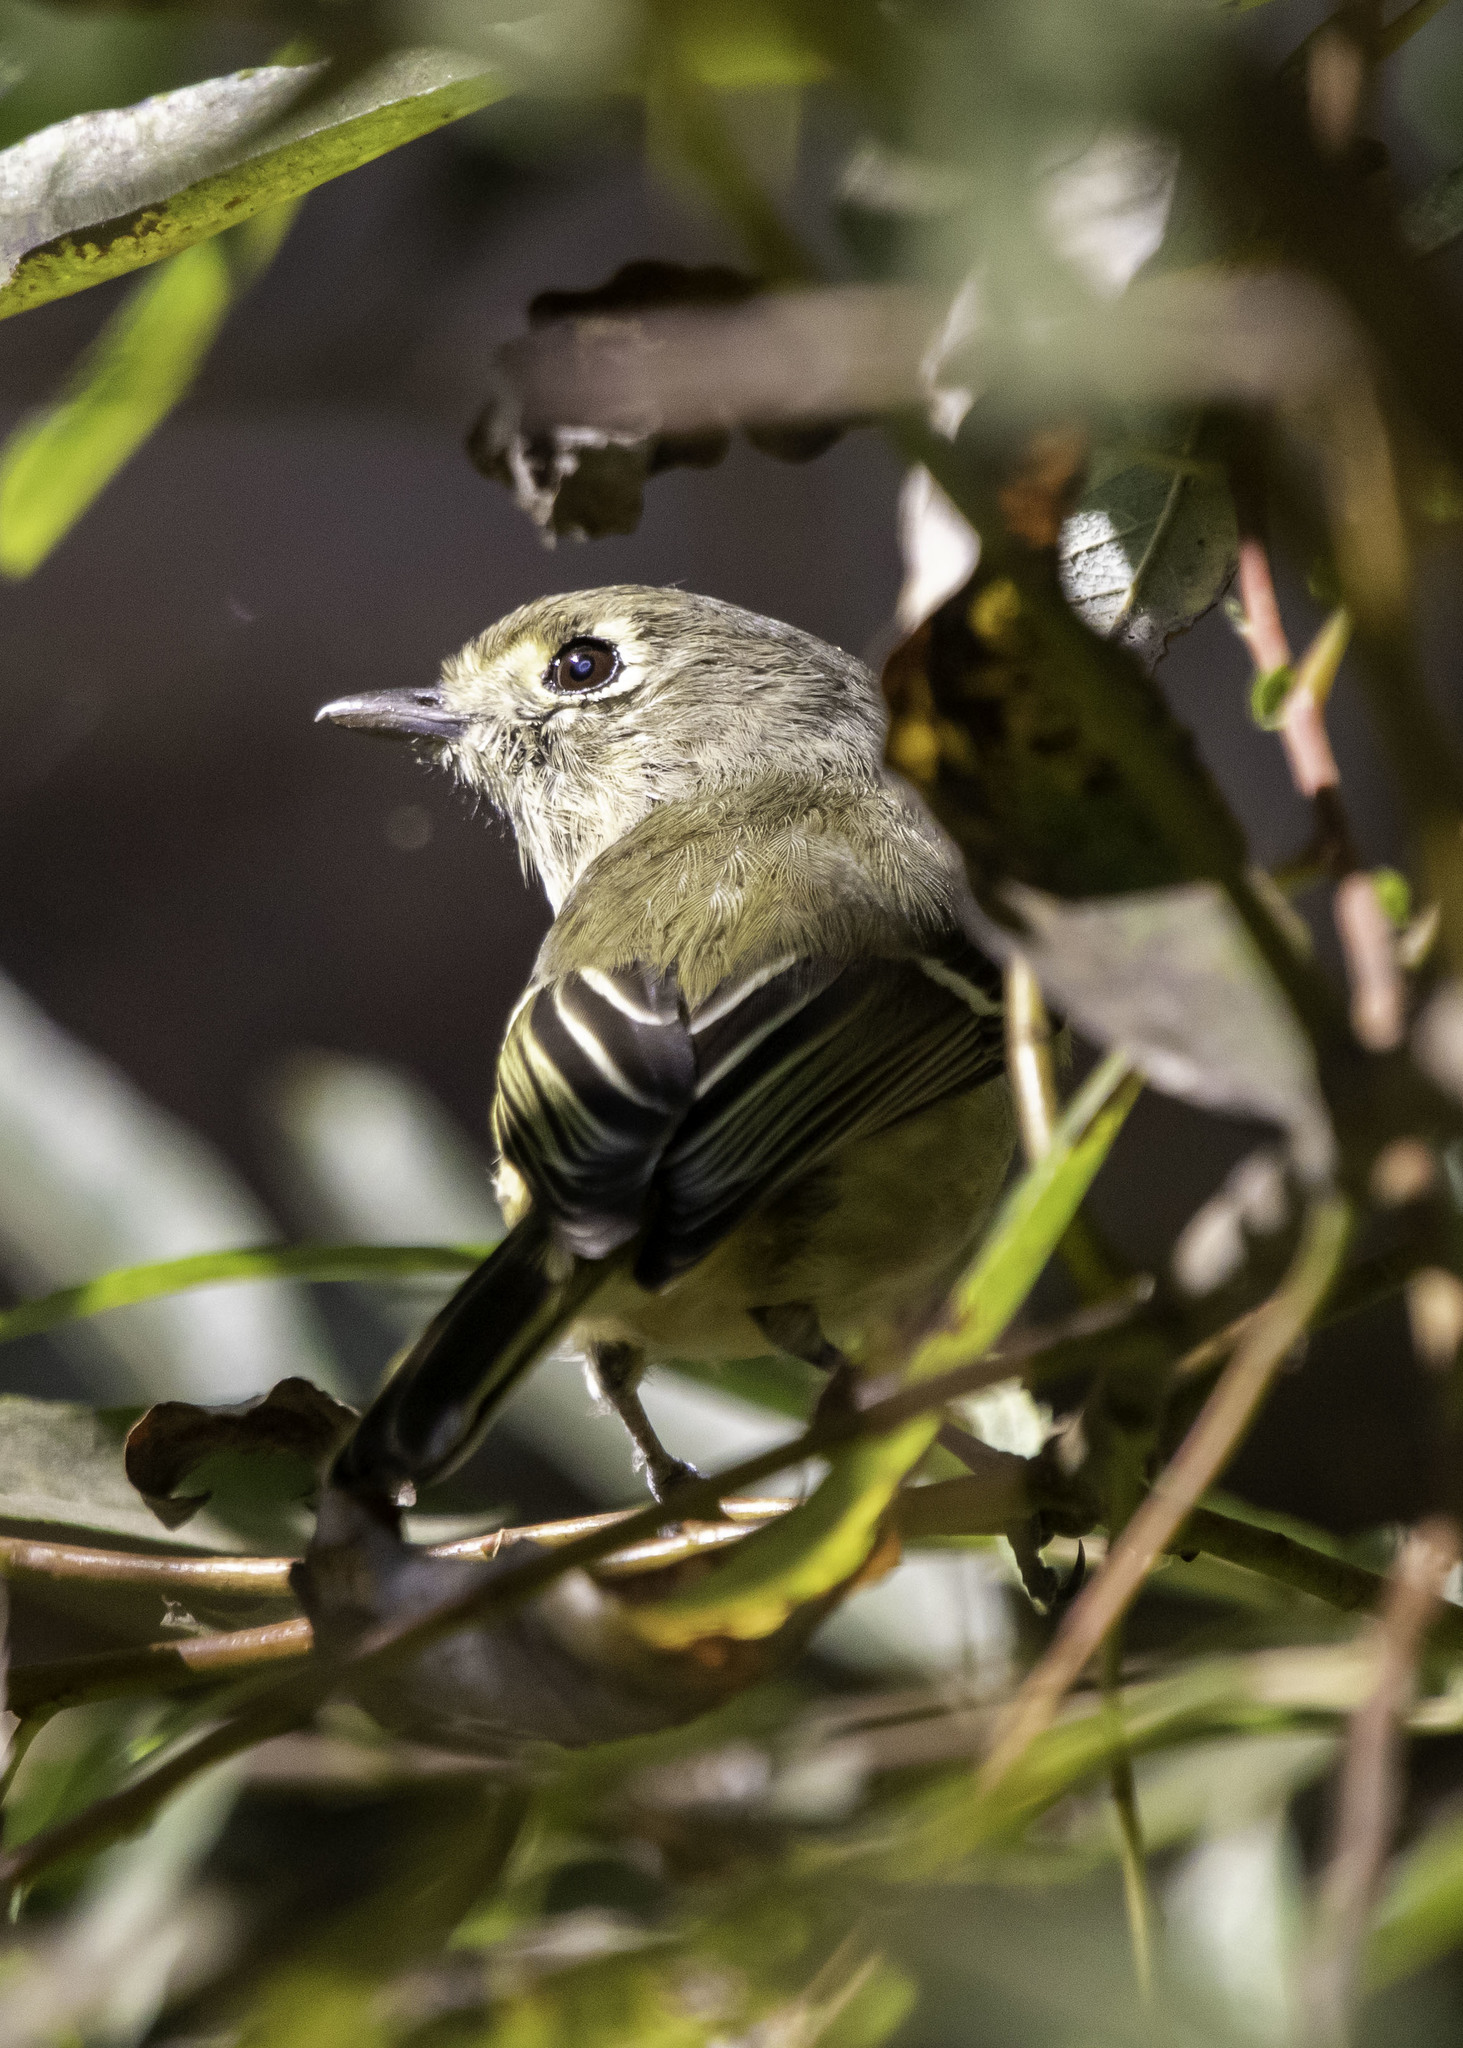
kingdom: Animalia
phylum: Chordata
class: Aves
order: Passeriformes
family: Vireonidae
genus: Vireo
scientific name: Vireo huttoni
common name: Hutton's vireo
